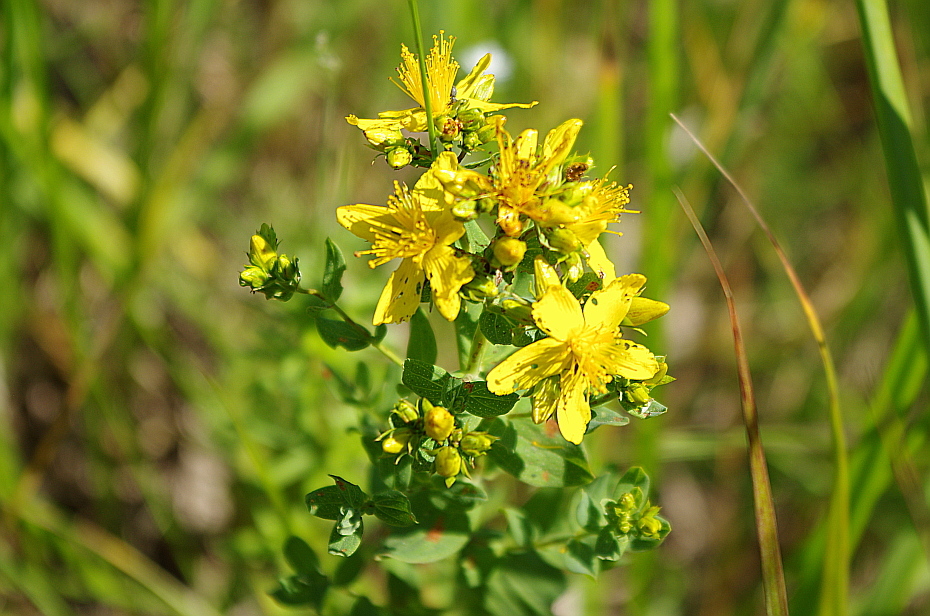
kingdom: Plantae
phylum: Tracheophyta
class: Magnoliopsida
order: Malpighiales
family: Hypericaceae
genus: Hypericum
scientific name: Hypericum perforatum
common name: Common st. johnswort
